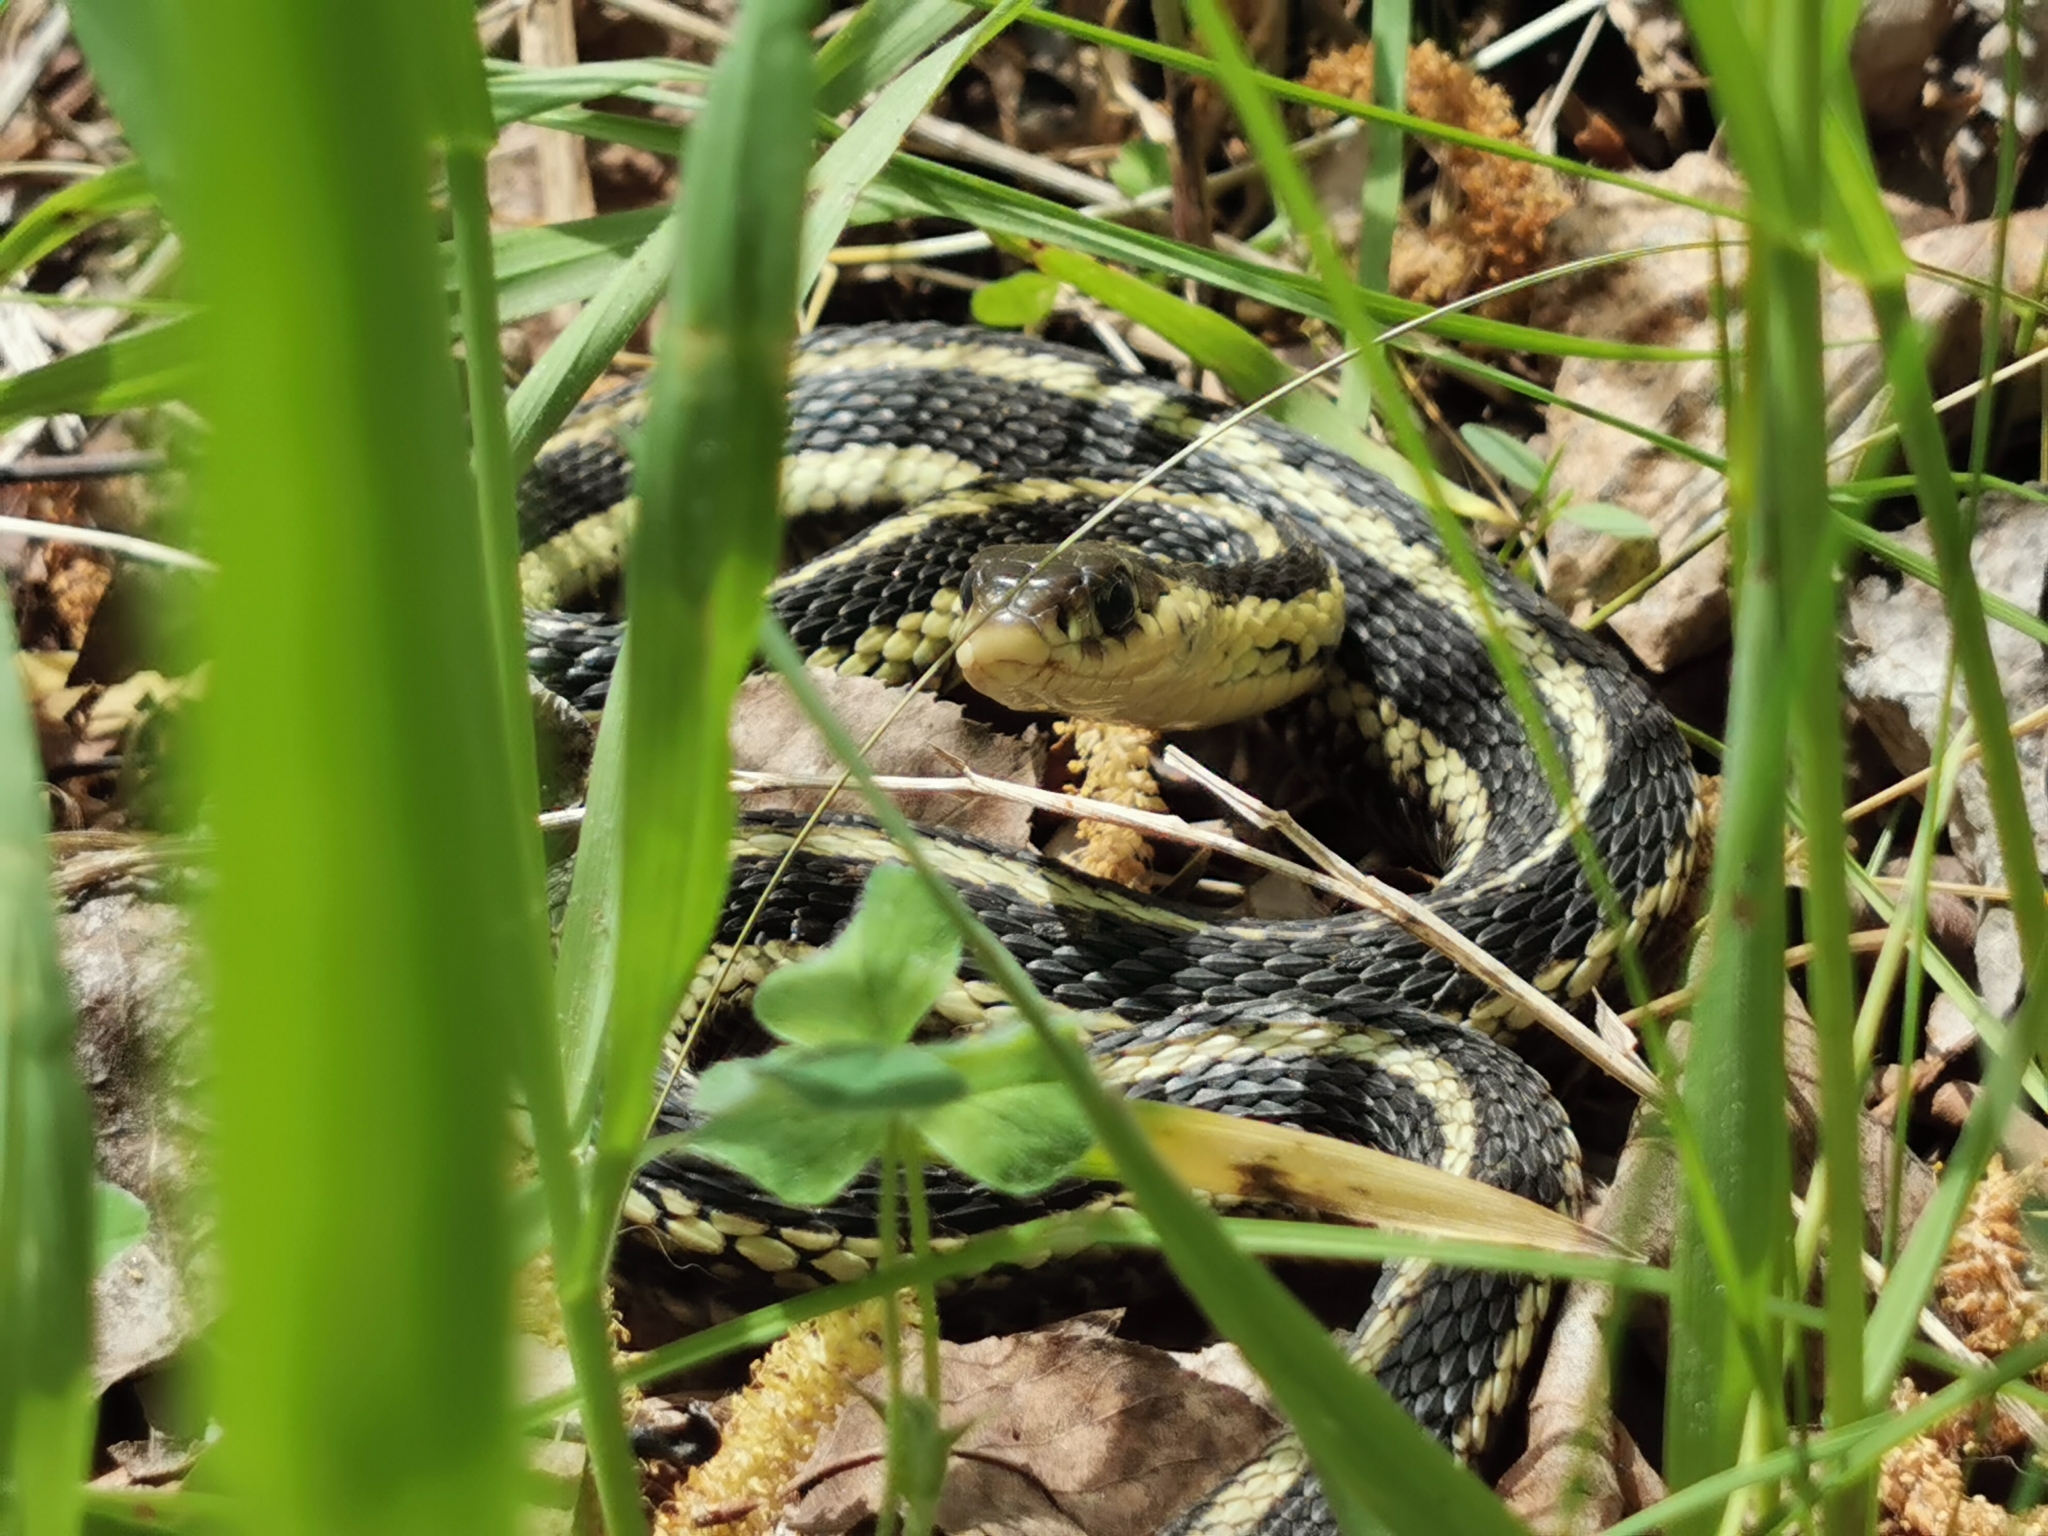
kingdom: Animalia
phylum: Chordata
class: Squamata
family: Colubridae
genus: Thamnophis
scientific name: Thamnophis sirtalis
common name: Common garter snake
